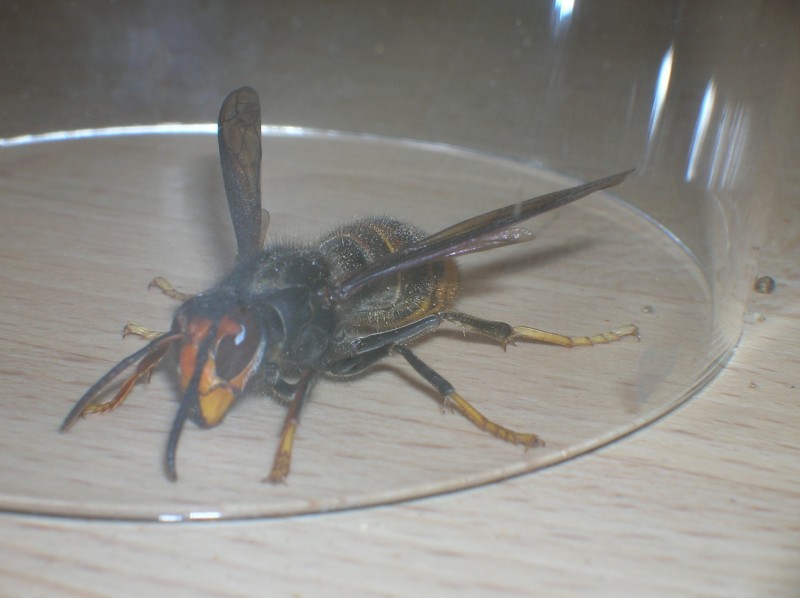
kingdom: Animalia
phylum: Arthropoda
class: Insecta
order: Hymenoptera
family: Vespidae
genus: Vespa
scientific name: Vespa velutina
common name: Asian hornet
